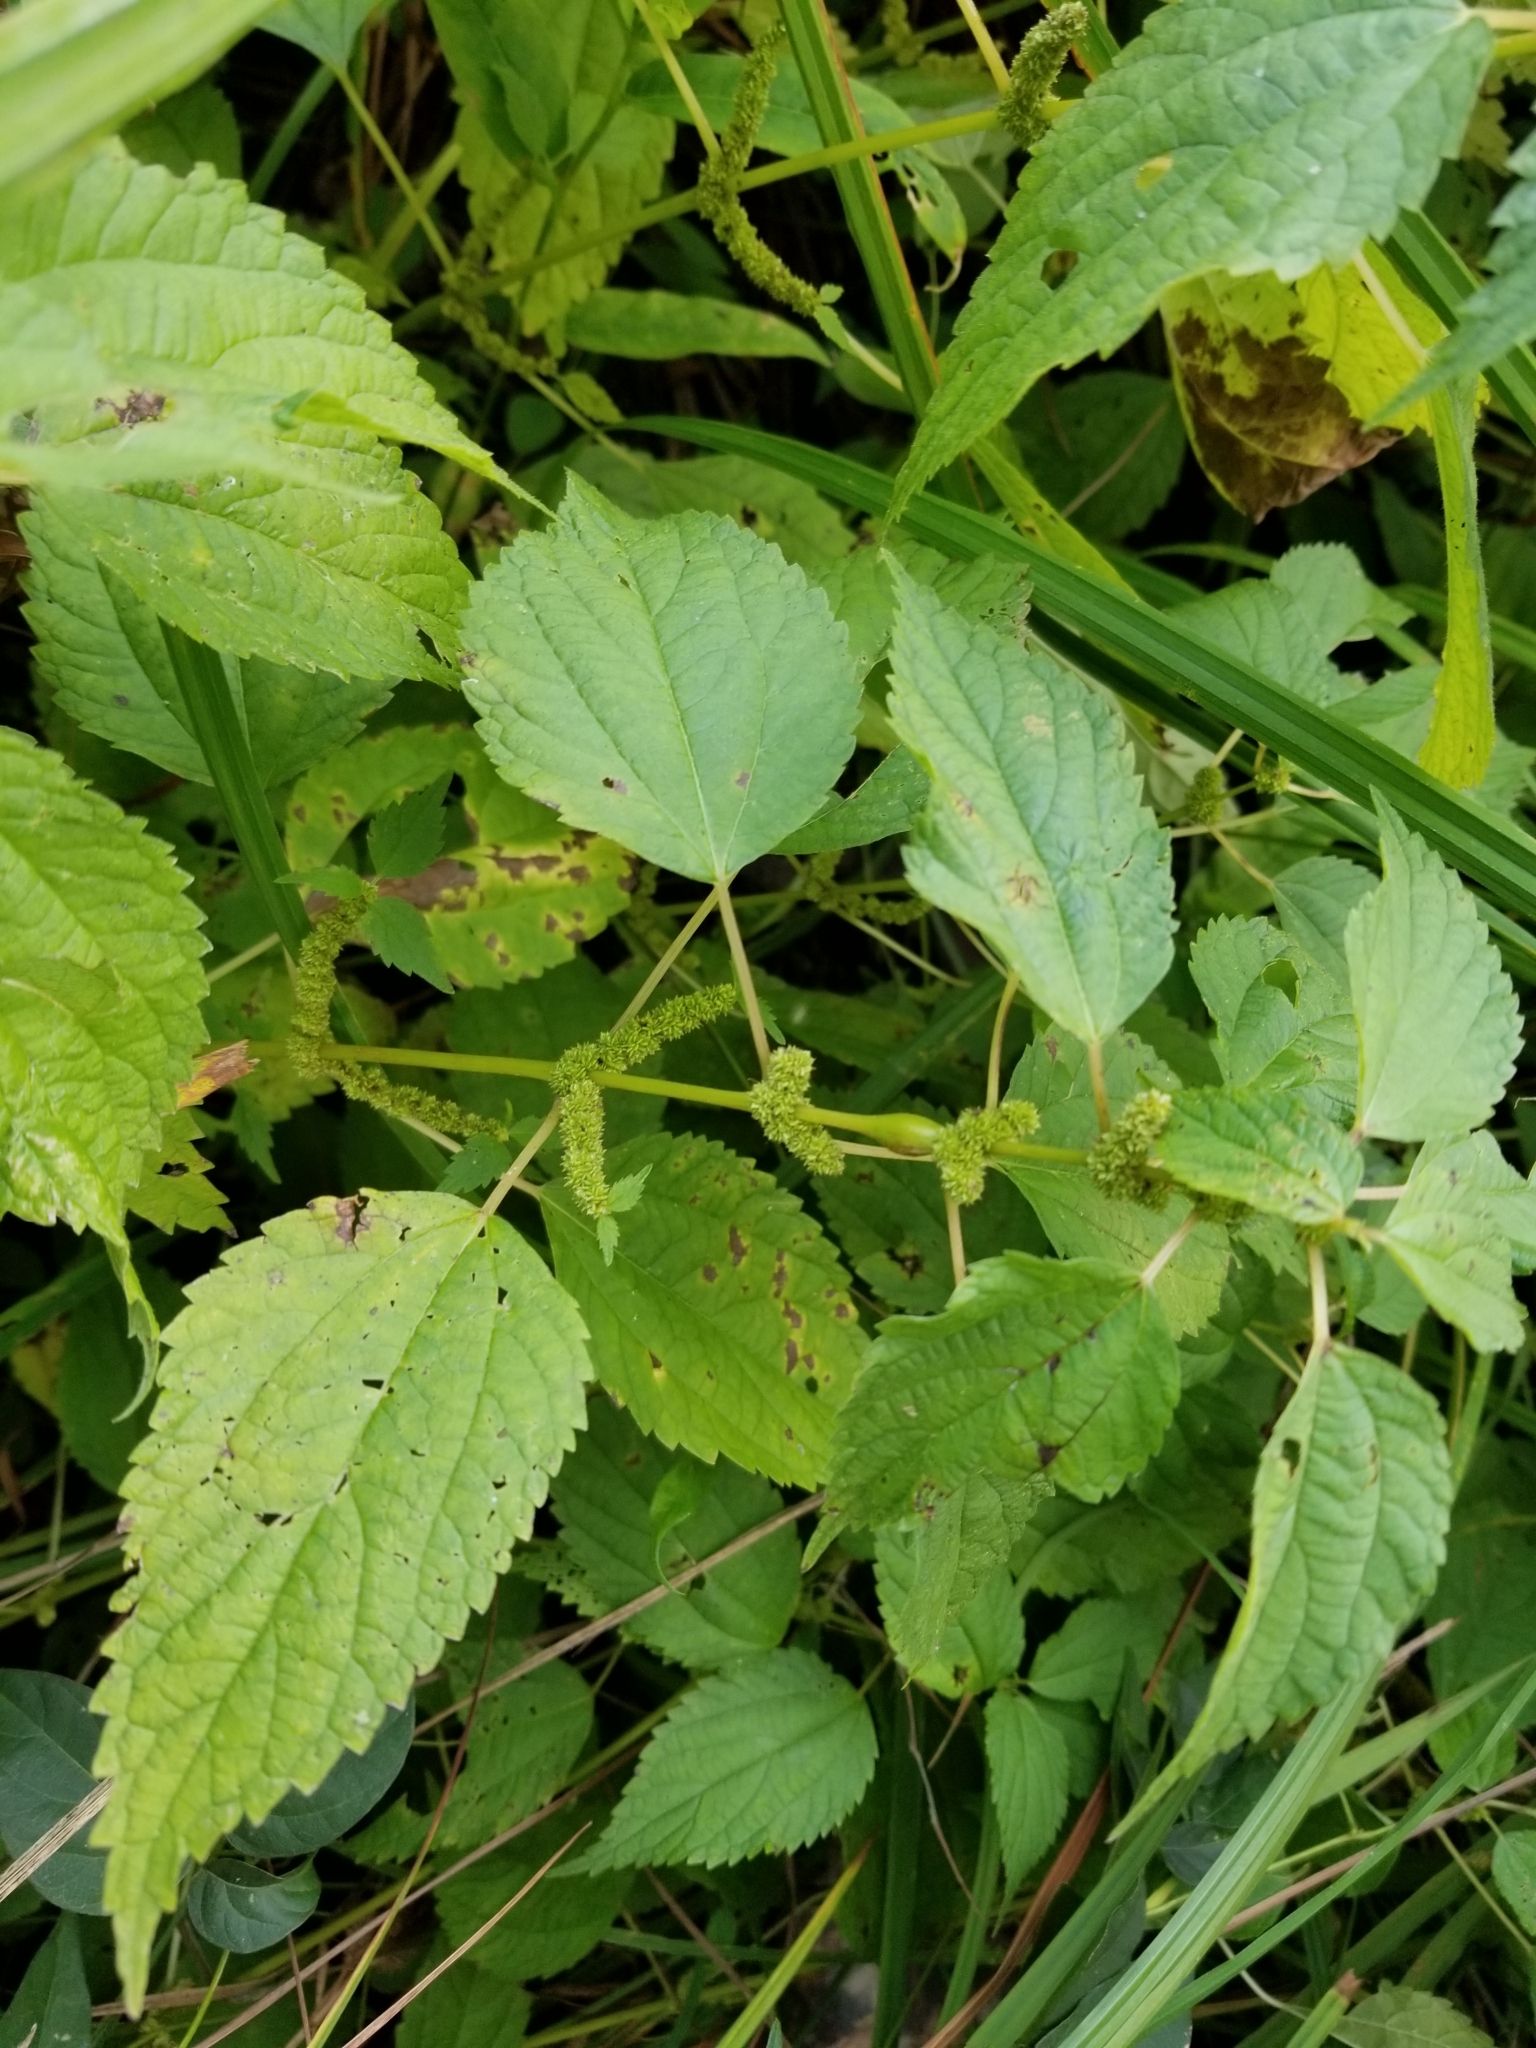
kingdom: Plantae
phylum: Tracheophyta
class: Magnoliopsida
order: Rosales
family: Urticaceae
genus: Boehmeria
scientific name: Boehmeria cylindrica
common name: Bog-hemp
